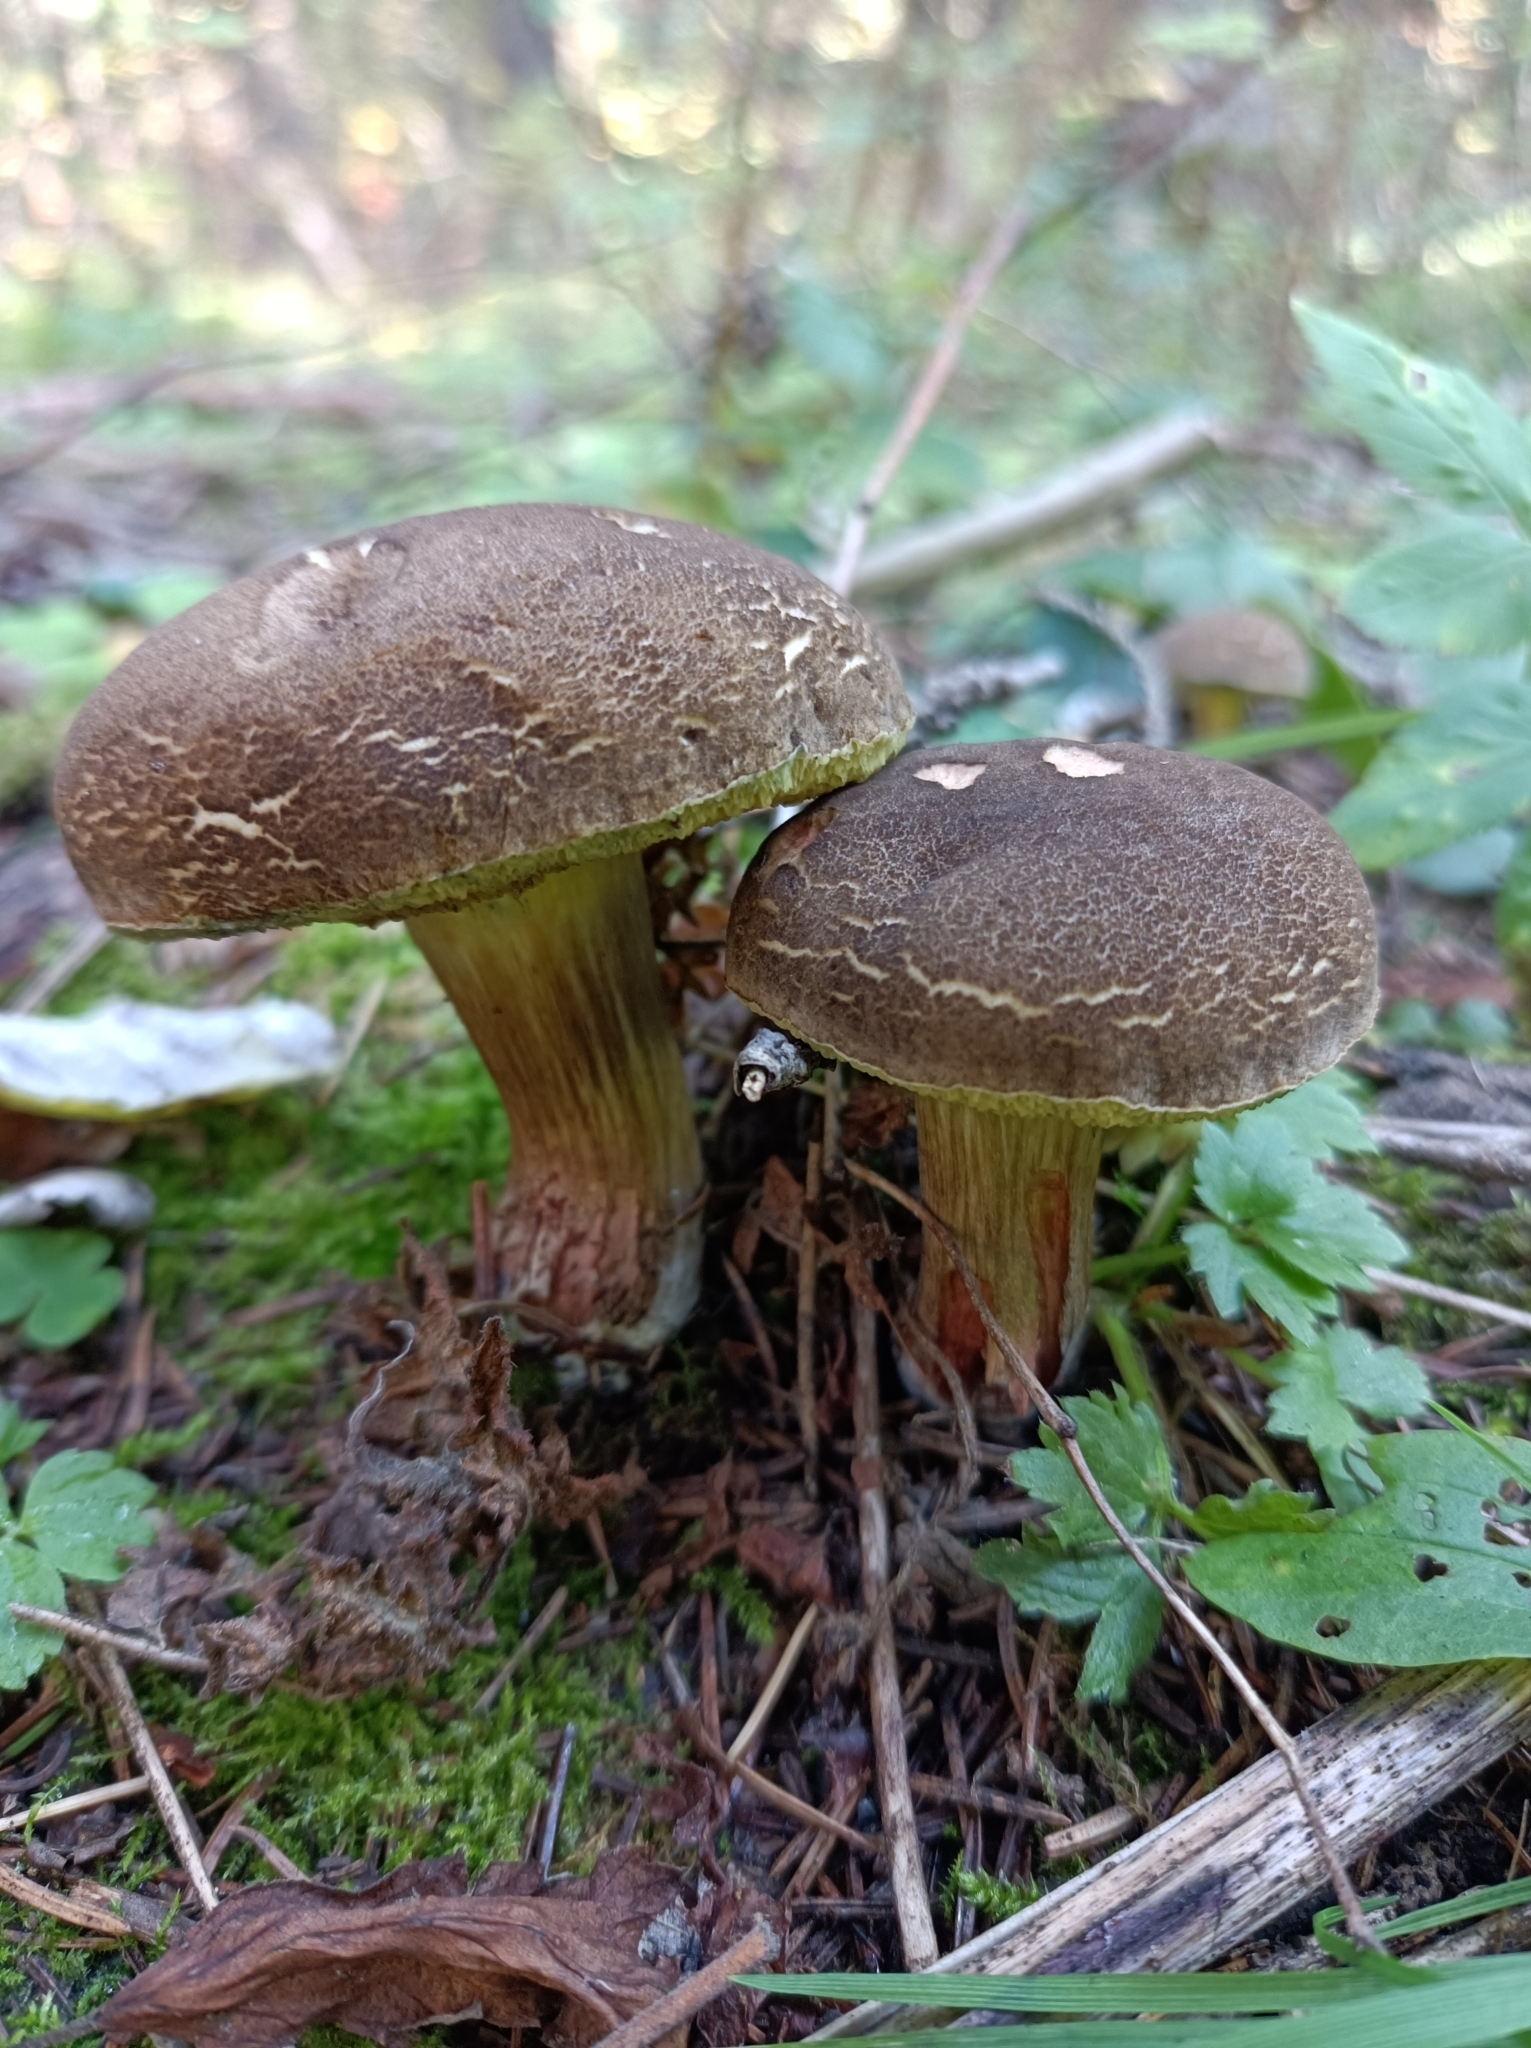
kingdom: Fungi
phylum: Basidiomycota
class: Agaricomycetes
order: Boletales
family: Boletaceae
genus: Xerocomellus
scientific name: Xerocomellus chrysenteron
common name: Red-cracking bolete
